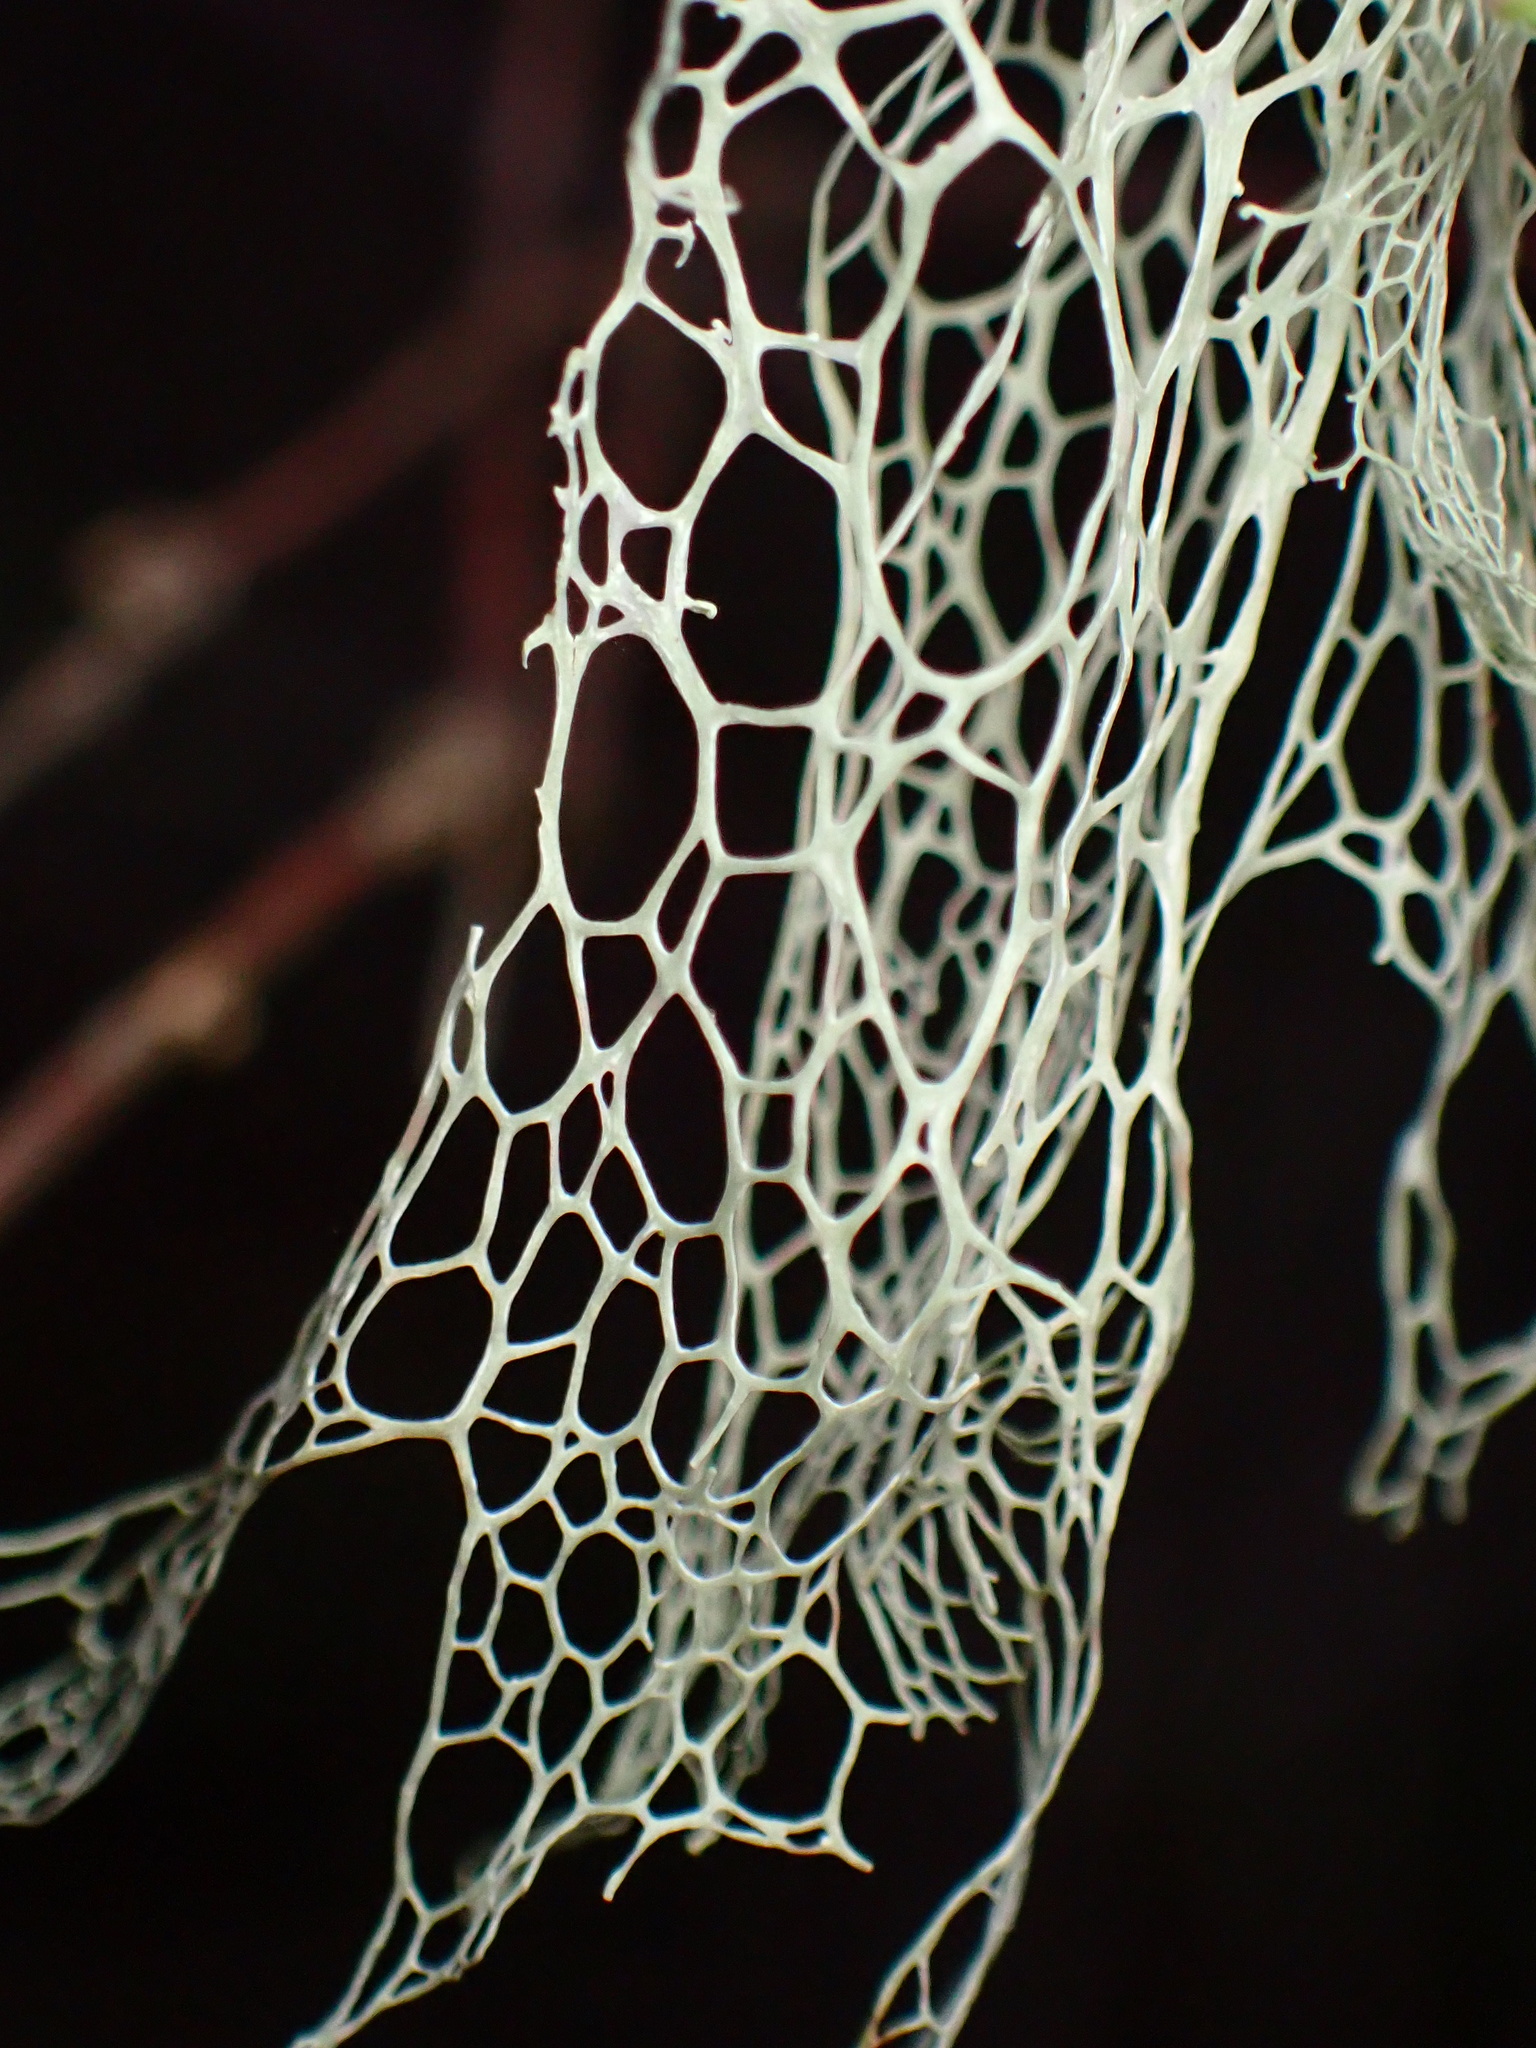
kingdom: Fungi
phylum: Ascomycota
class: Lecanoromycetes
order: Lecanorales
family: Ramalinaceae
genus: Ramalina
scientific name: Ramalina menziesii
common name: Lace lichen
